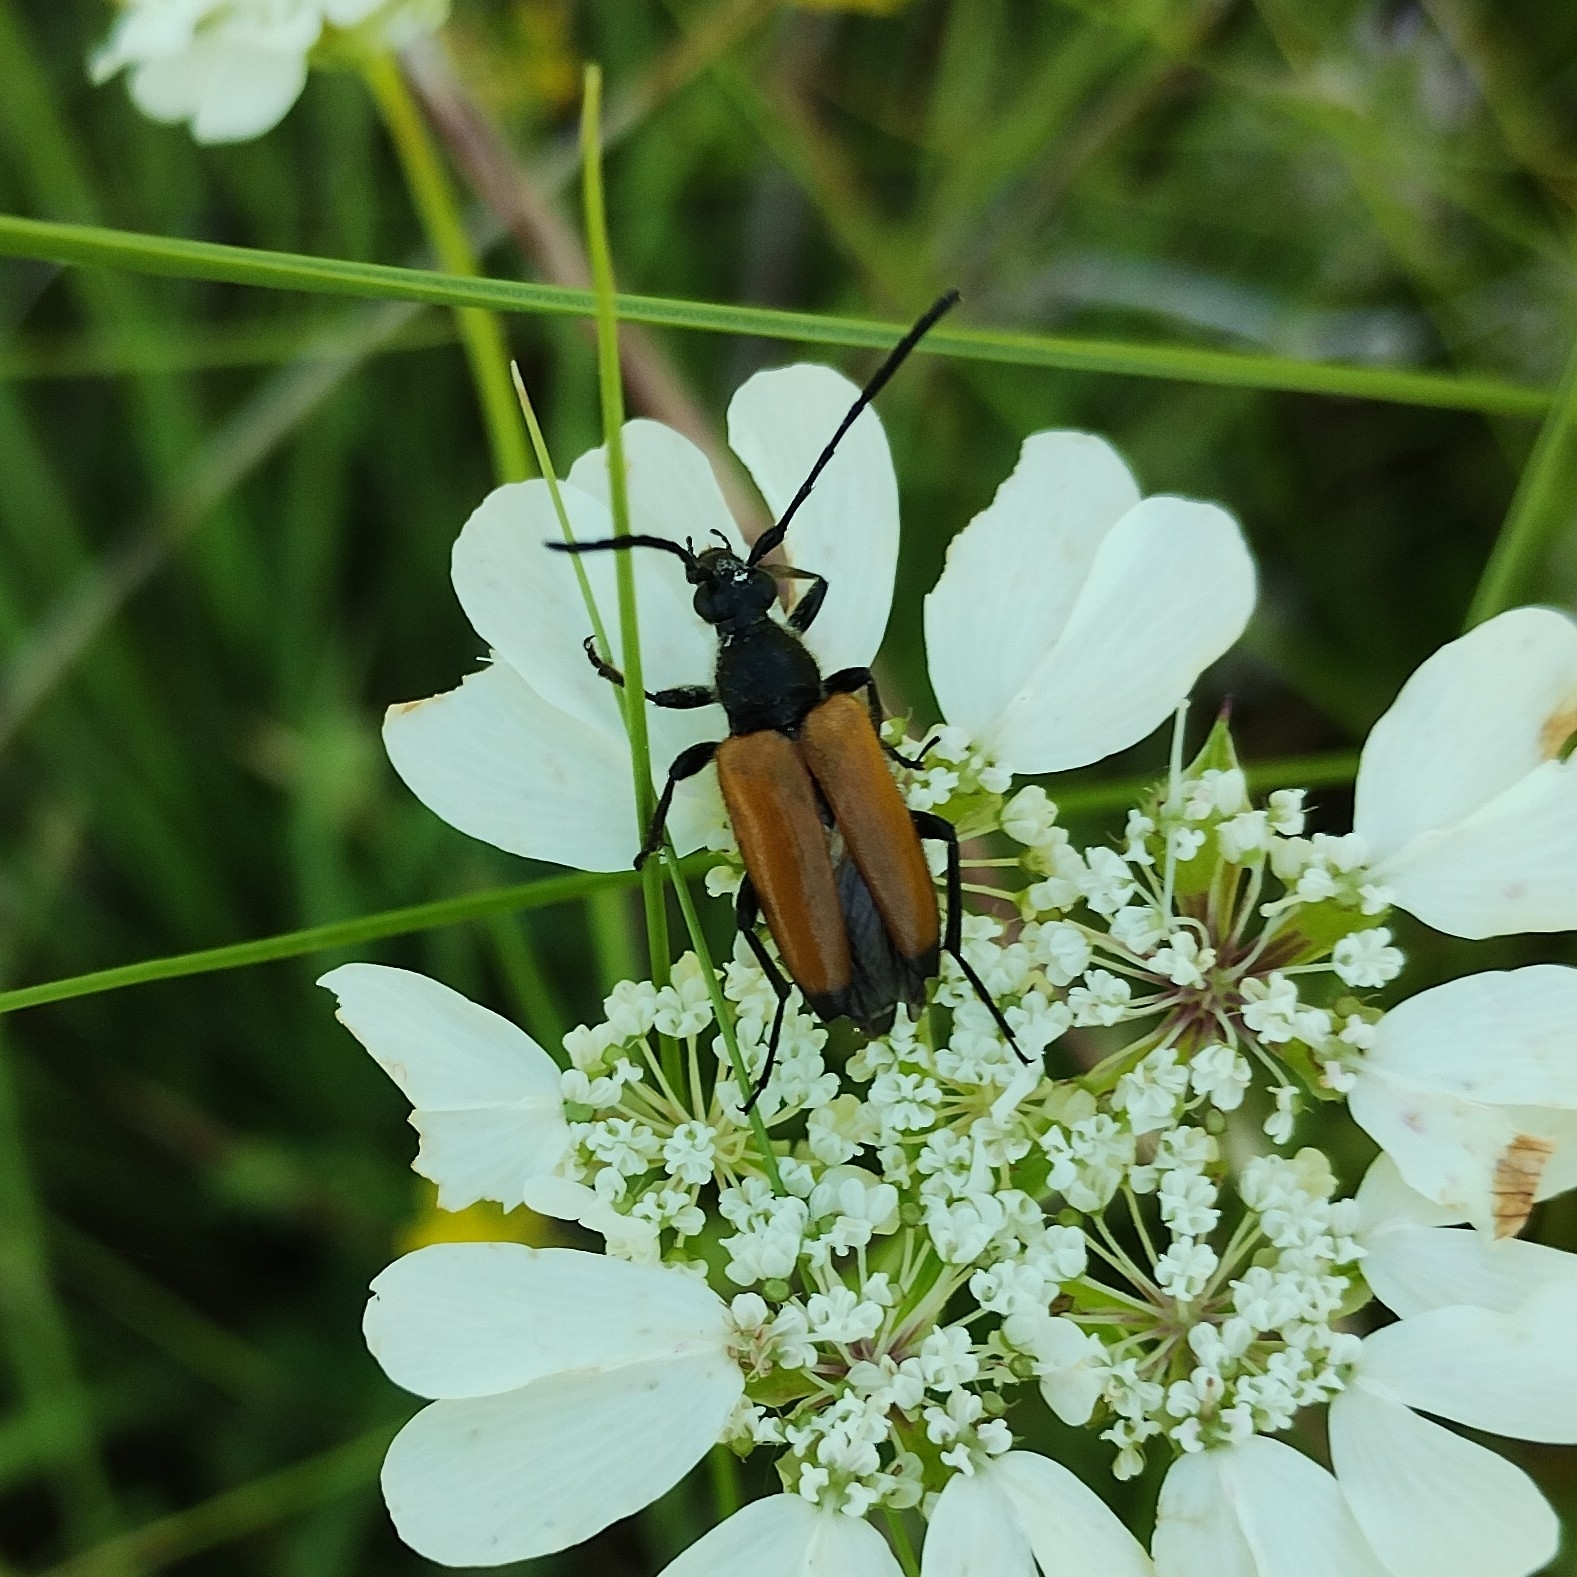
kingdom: Animalia
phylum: Arthropoda
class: Insecta
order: Coleoptera
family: Cerambycidae
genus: Paracorymbia
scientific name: Paracorymbia fulva
